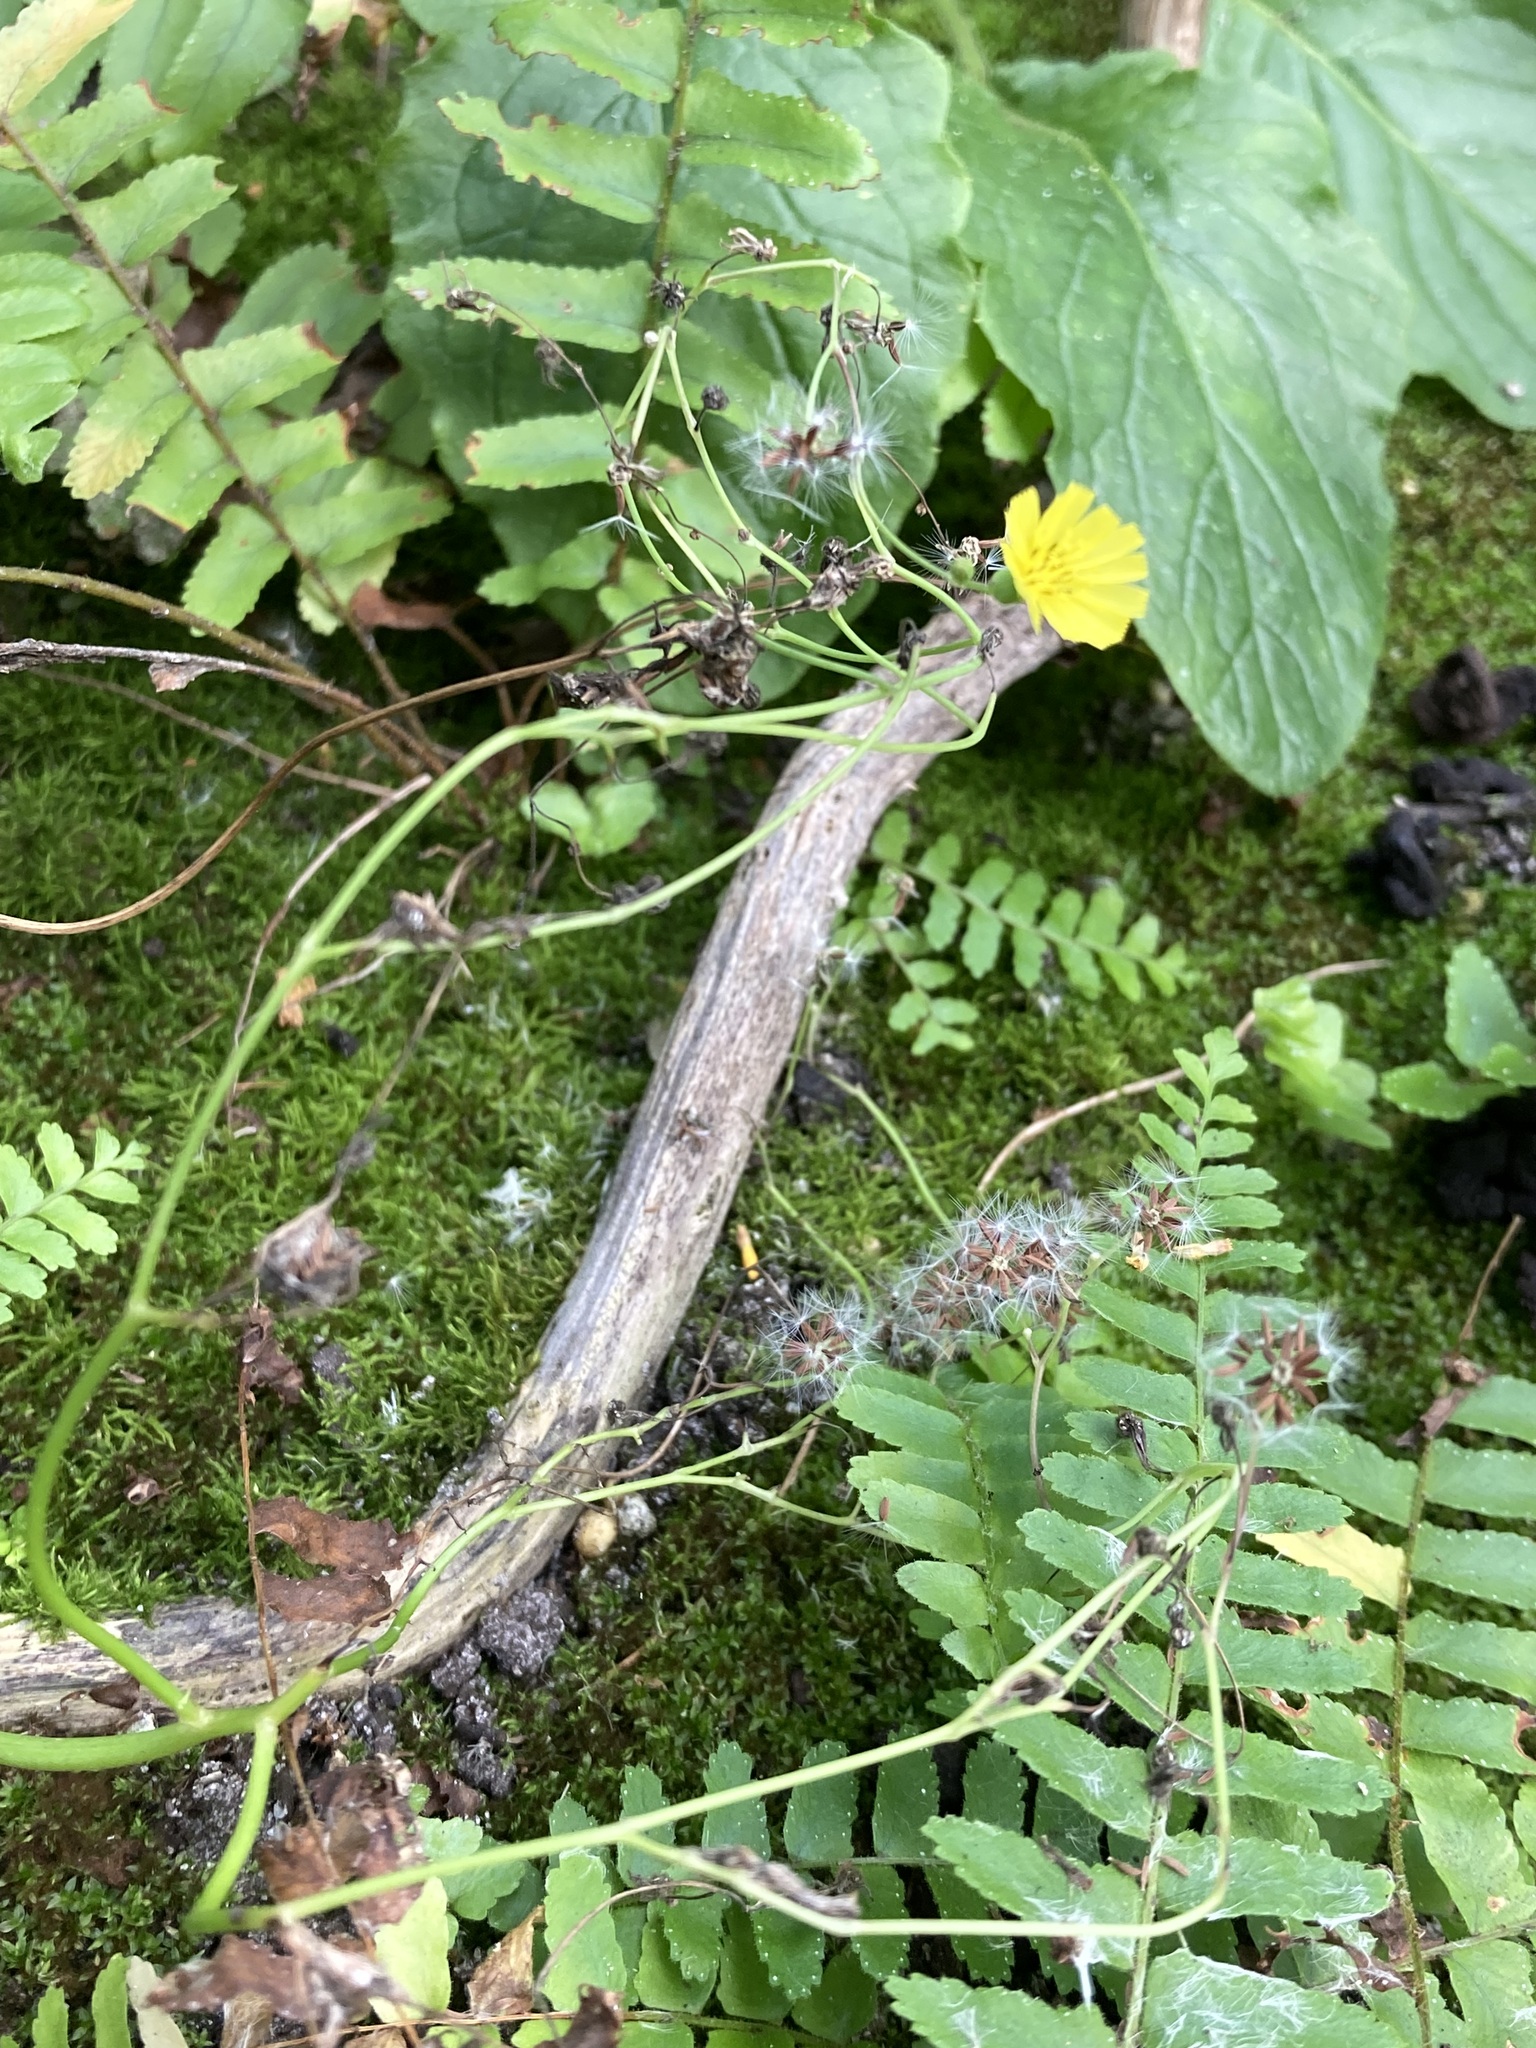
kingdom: Plantae
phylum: Tracheophyta
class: Magnoliopsida
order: Asterales
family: Asteraceae
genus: Youngia
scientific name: Youngia japonica
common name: Oriental false hawksbeard
